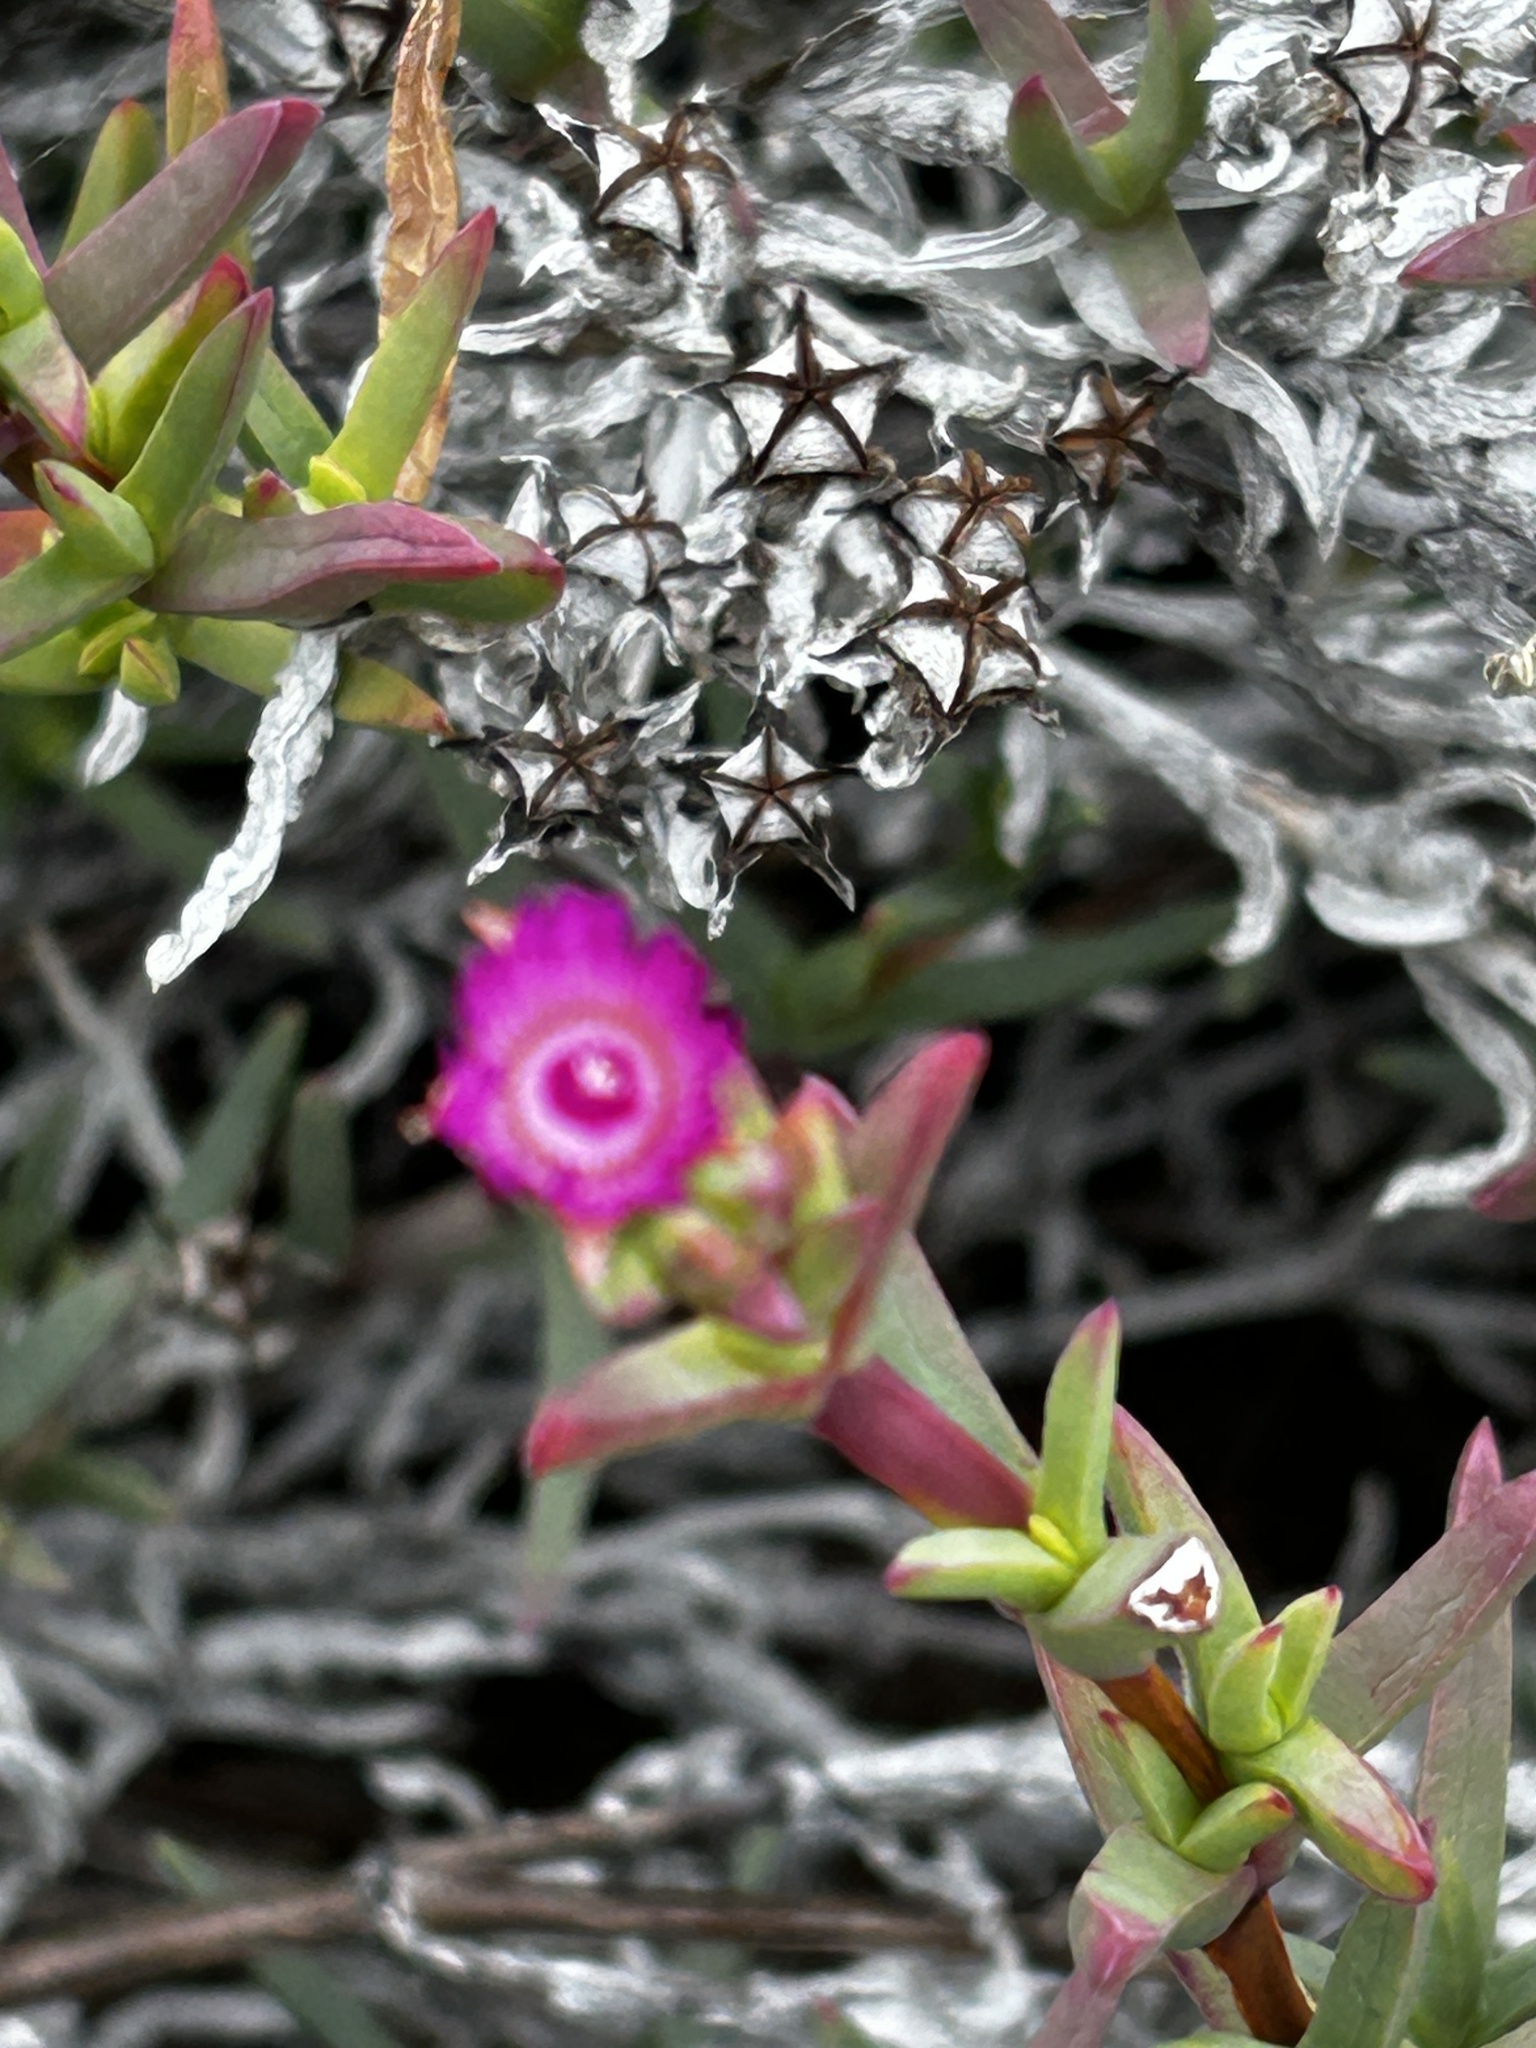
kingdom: Plantae
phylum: Tracheophyta
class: Magnoliopsida
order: Caryophyllales
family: Aizoaceae
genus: Ruschia
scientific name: Ruschia macowanii
